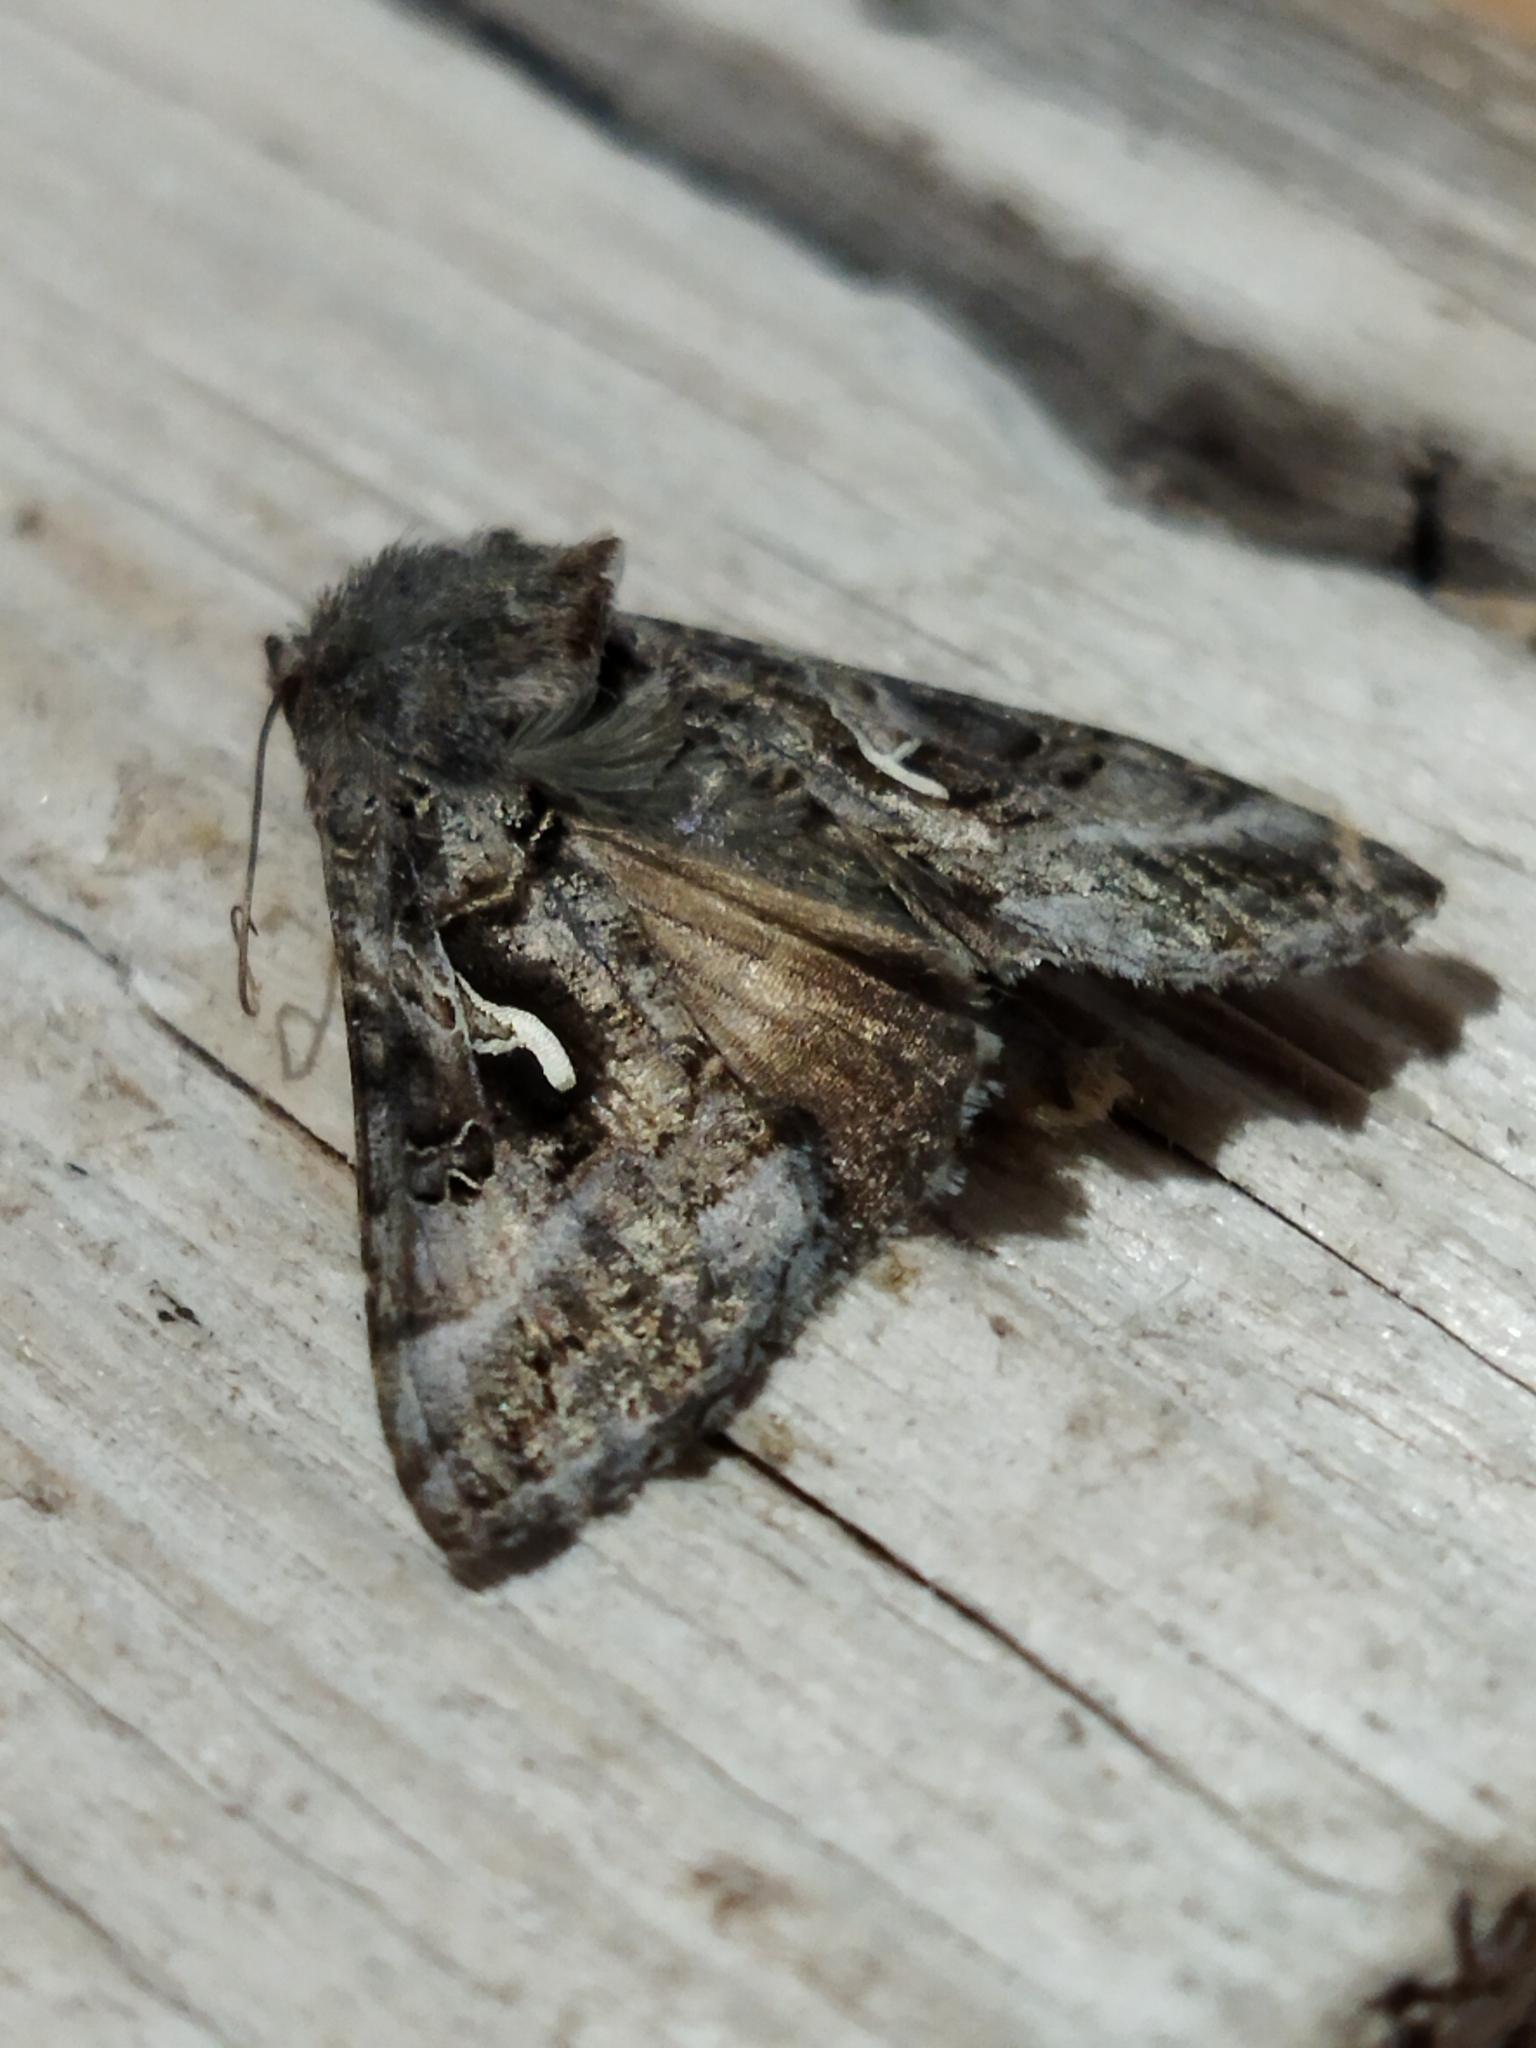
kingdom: Animalia
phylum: Arthropoda
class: Insecta
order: Lepidoptera
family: Noctuidae
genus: Autographa
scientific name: Autographa gamma
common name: Silver y
